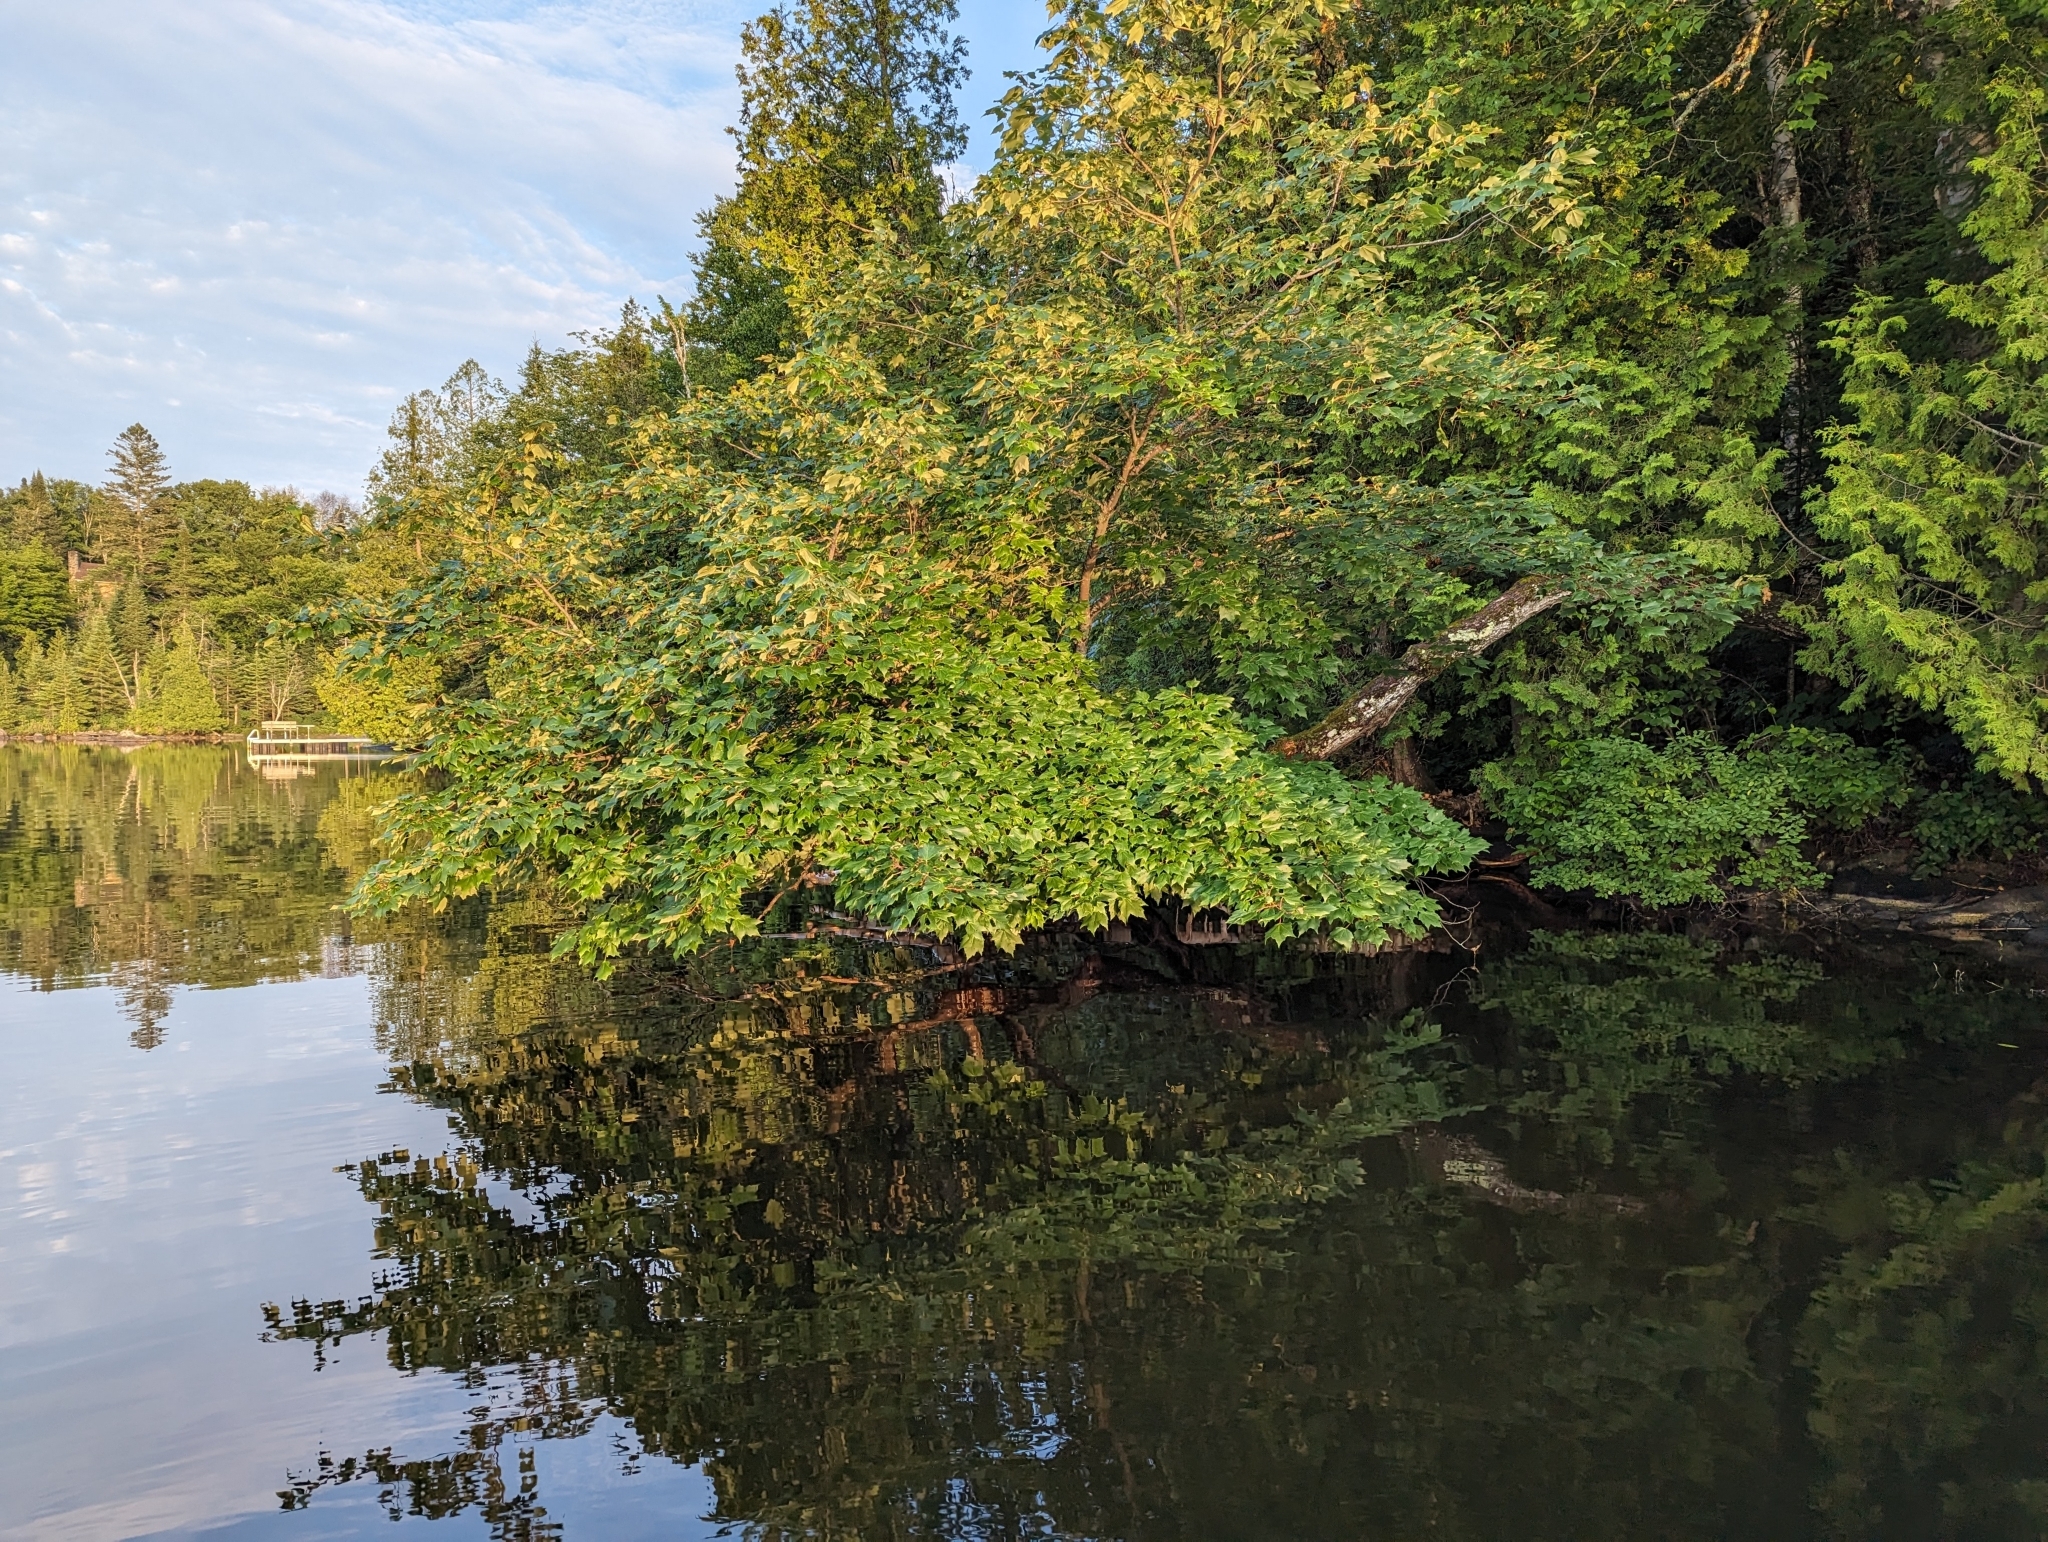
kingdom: Plantae
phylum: Tracheophyta
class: Magnoliopsida
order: Sapindales
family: Sapindaceae
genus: Acer
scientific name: Acer rubrum
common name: Red maple
